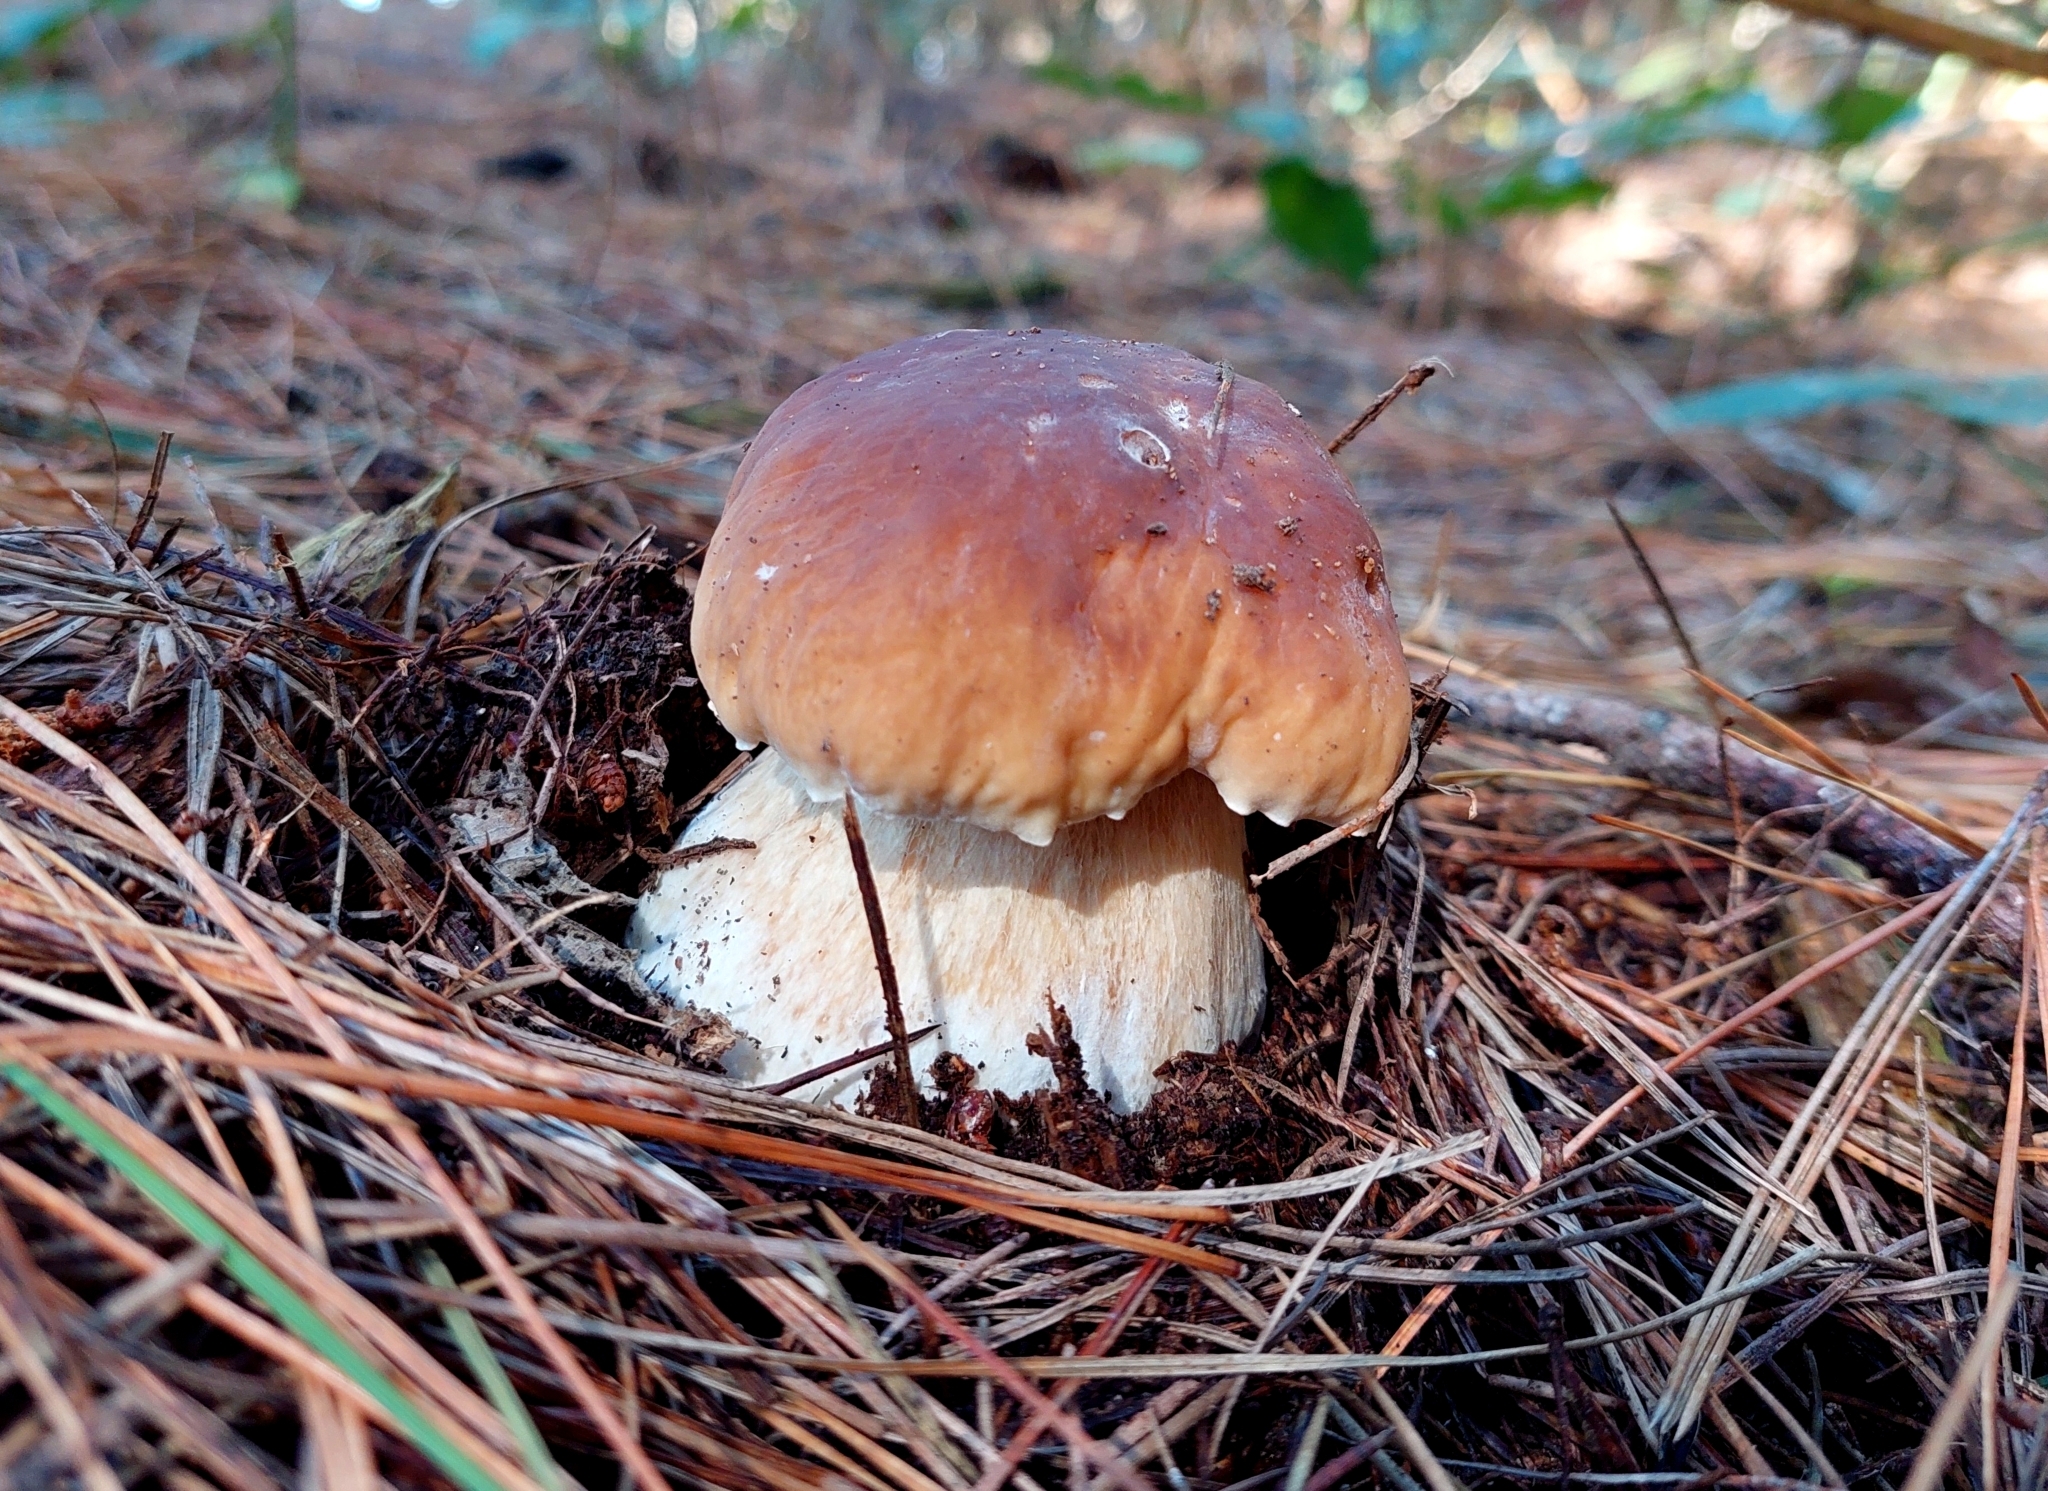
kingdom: Fungi
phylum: Basidiomycota
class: Agaricomycetes
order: Boletales
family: Boletaceae
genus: Boletus
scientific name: Boletus edulis
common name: Cep
